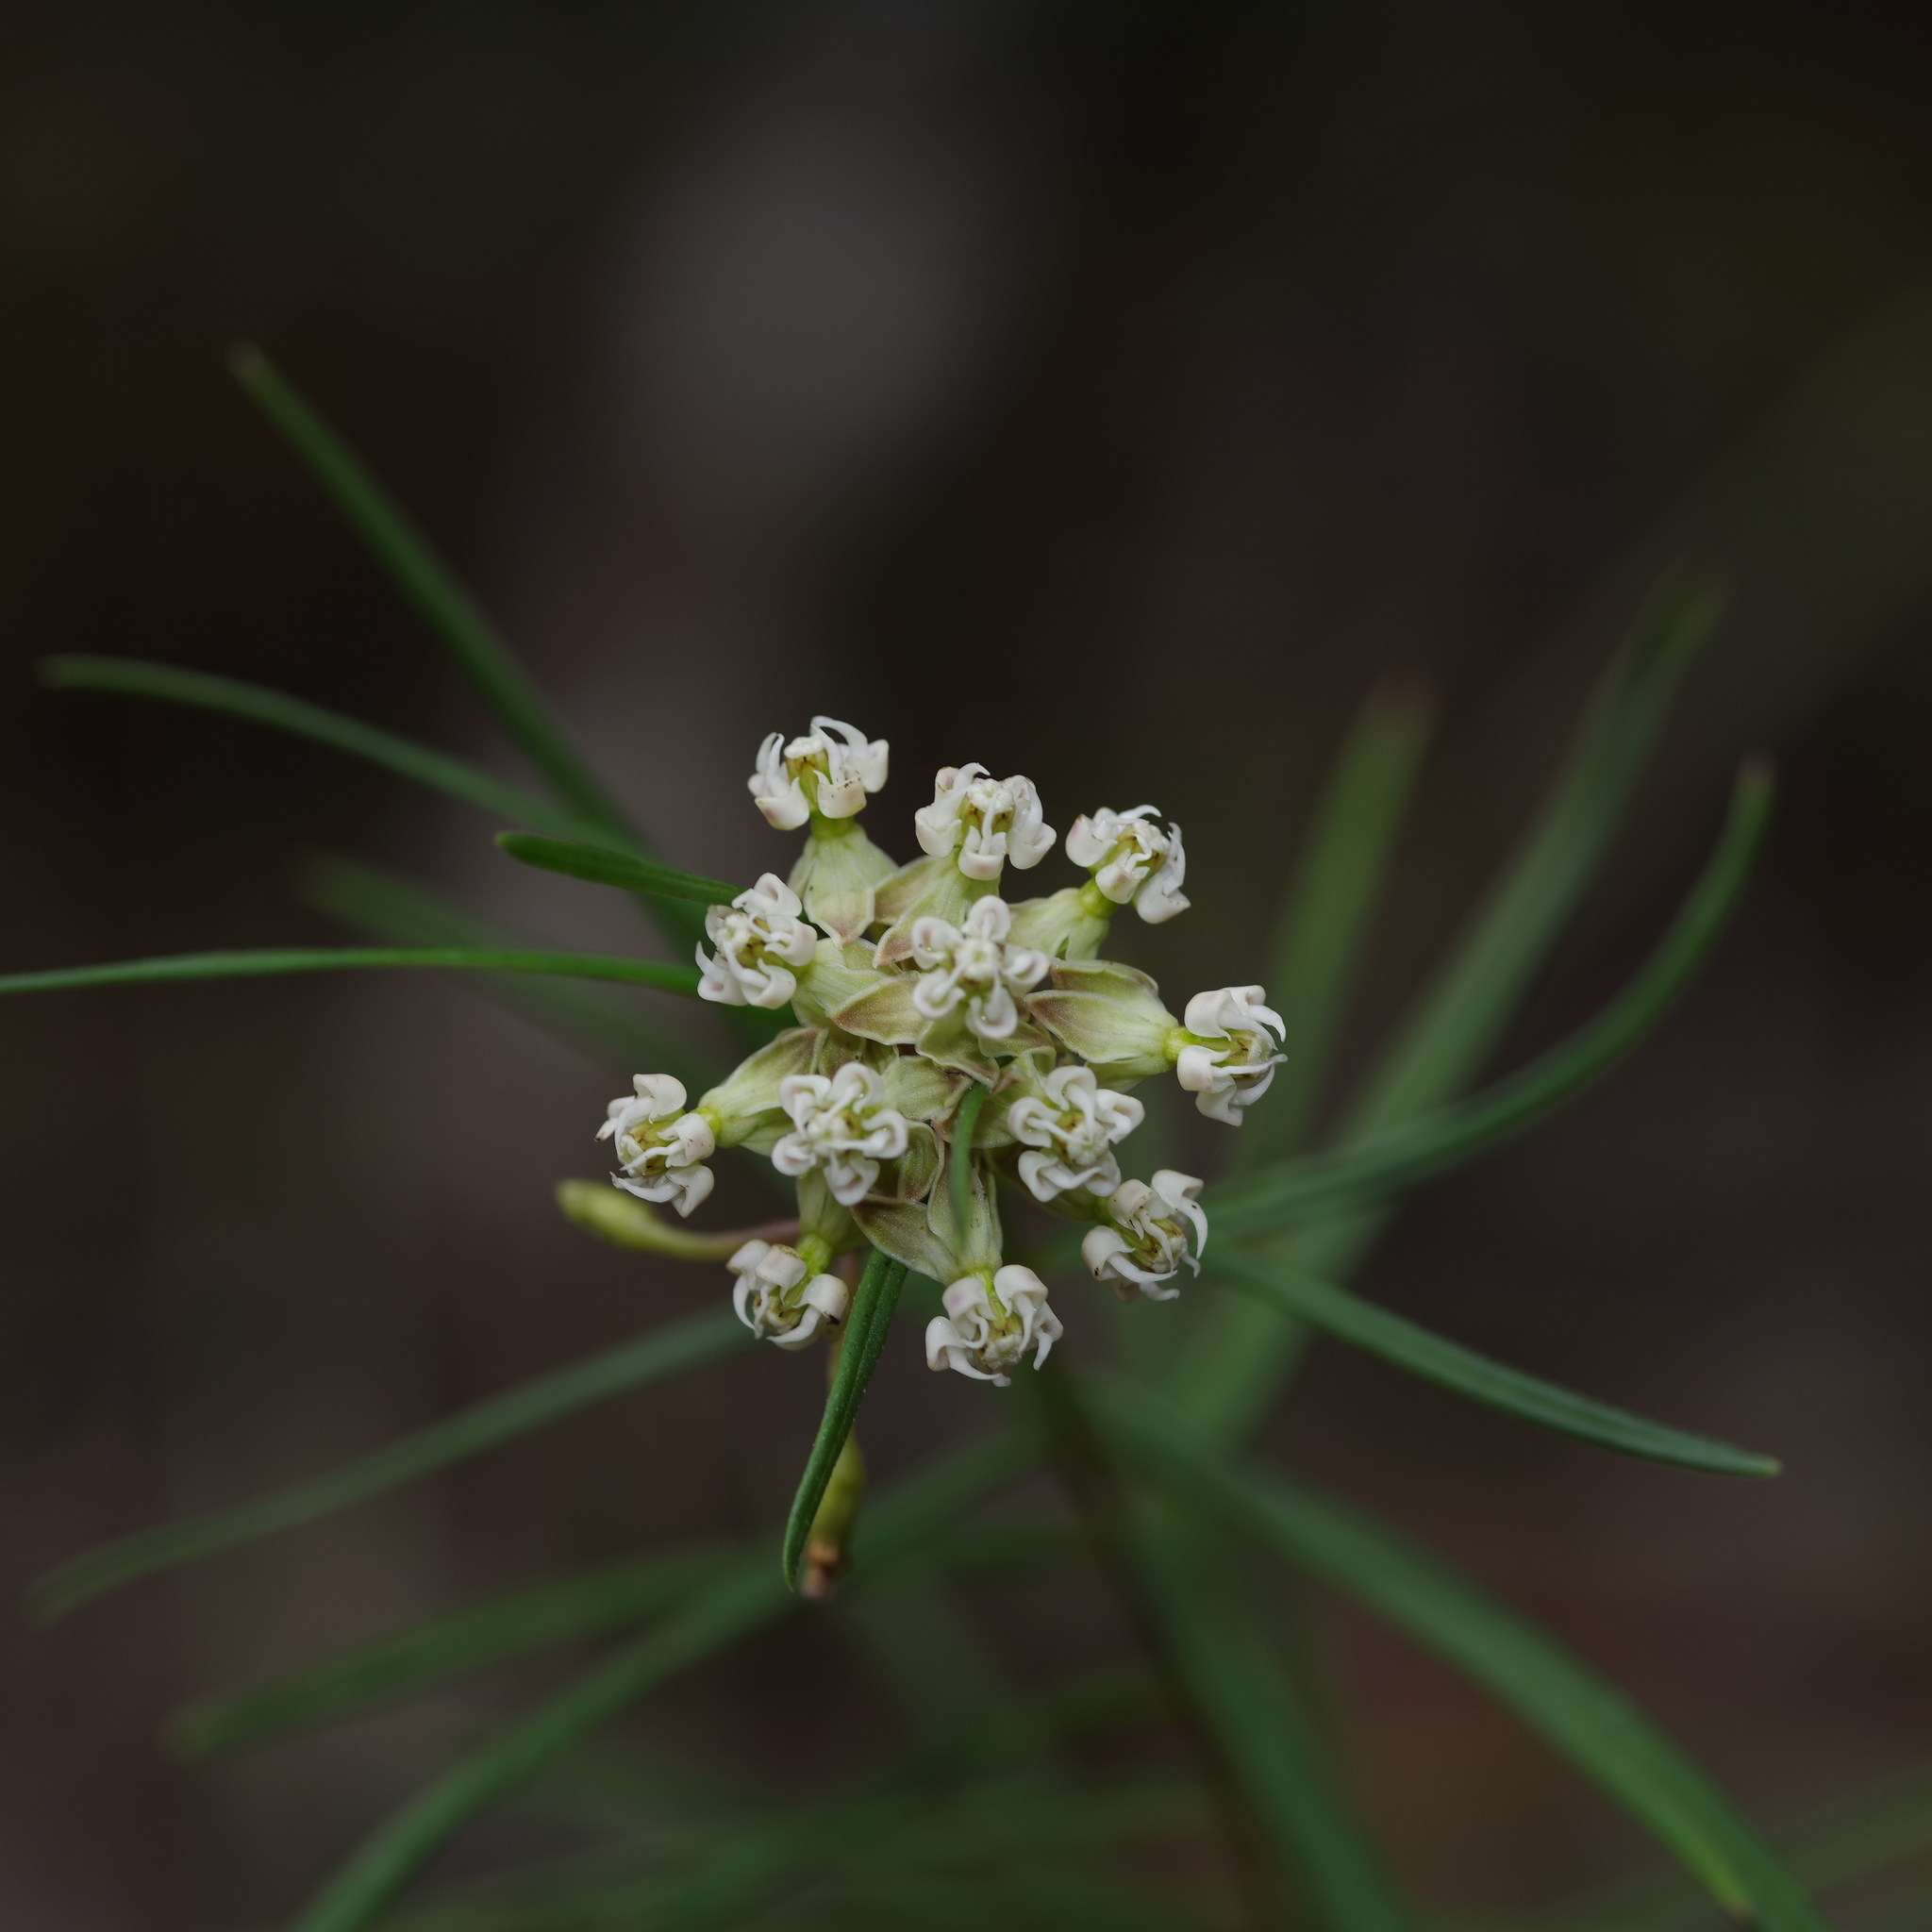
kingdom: Plantae
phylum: Tracheophyta
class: Magnoliopsida
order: Gentianales
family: Apocynaceae
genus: Asclepias
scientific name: Asclepias verticillata
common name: Eastern whorled milkweed
